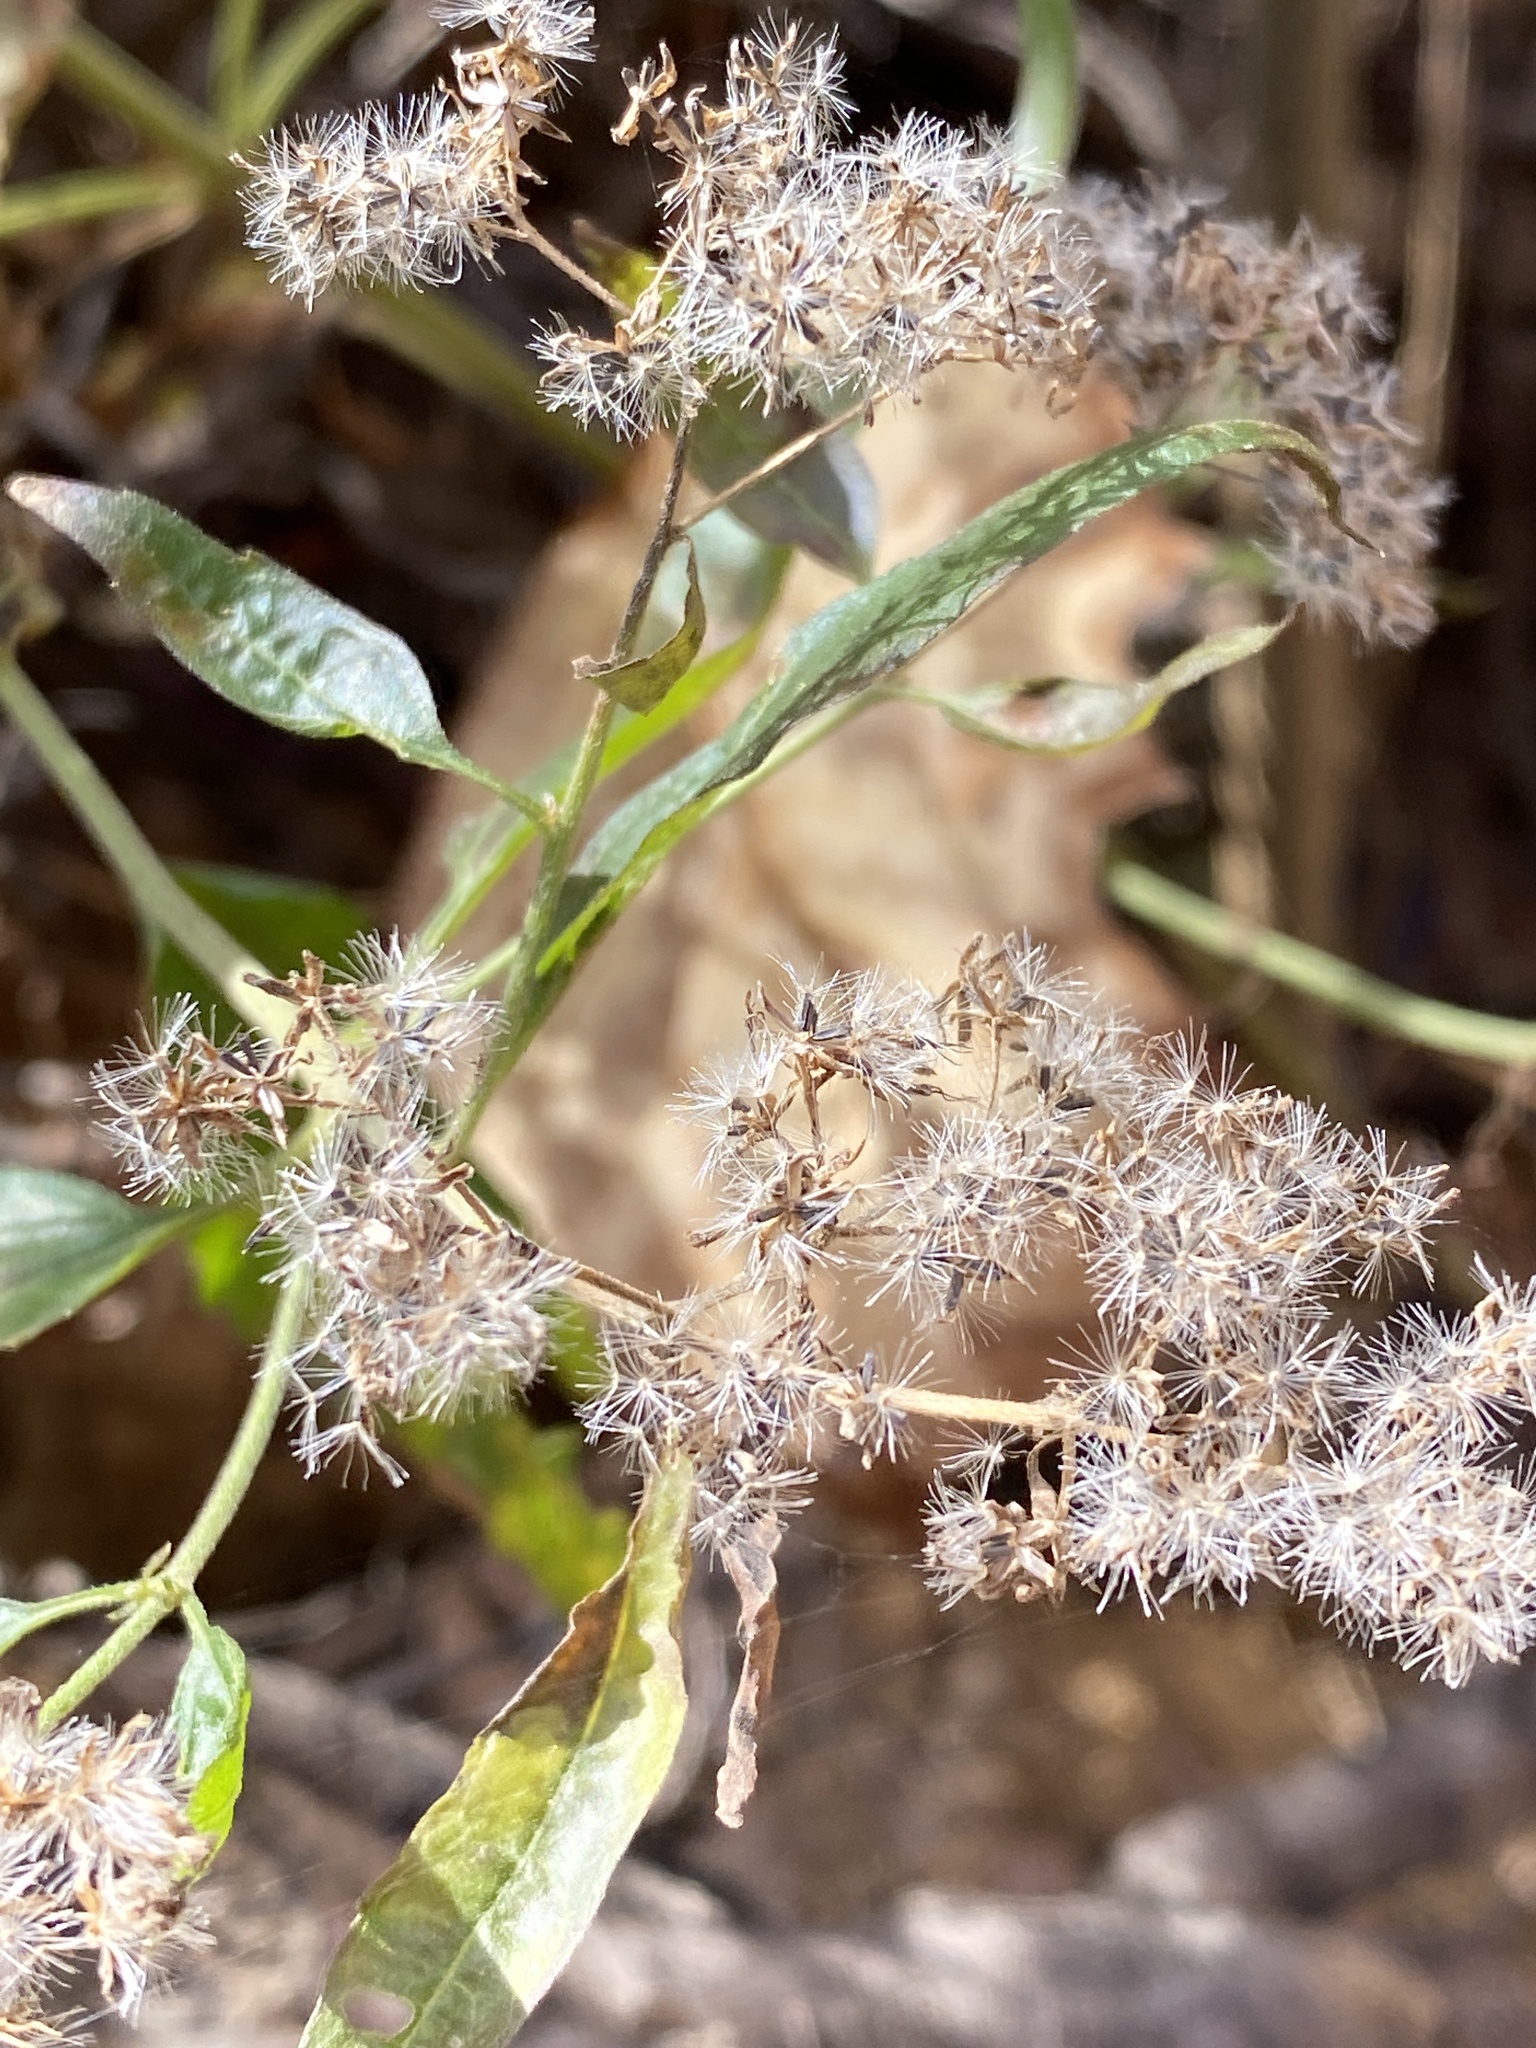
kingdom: Plantae
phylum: Tracheophyta
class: Magnoliopsida
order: Asterales
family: Asteraceae
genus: Eupatorium
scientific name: Eupatorium serotinum
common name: Late boneset
